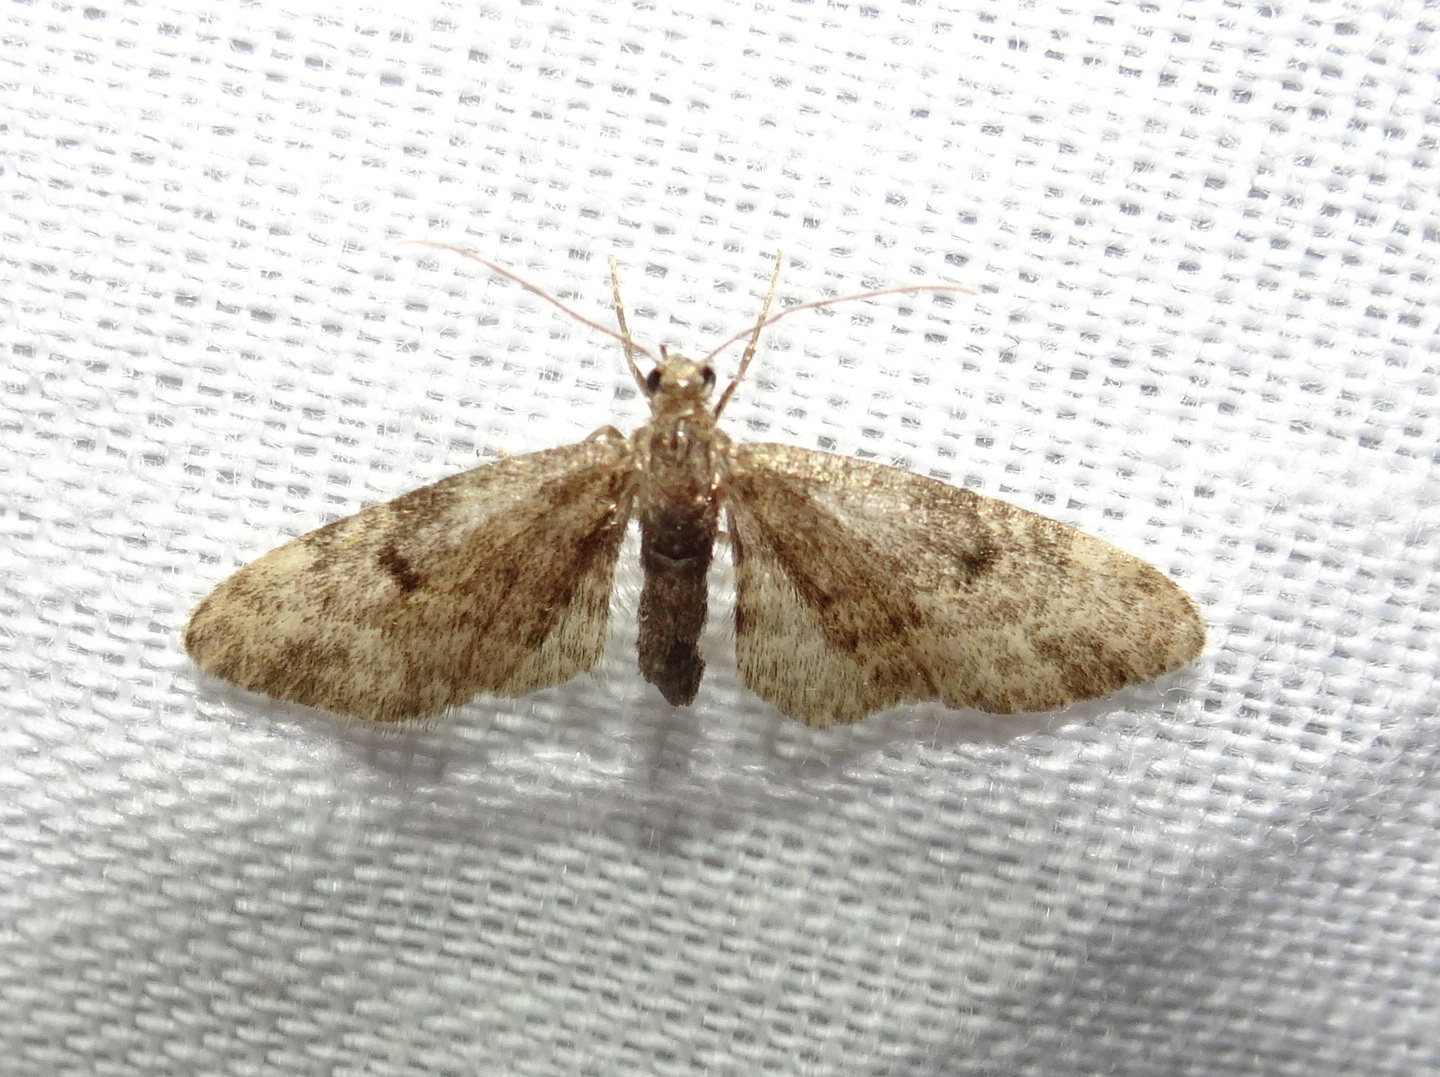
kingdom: Animalia
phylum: Arthropoda
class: Insecta
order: Lepidoptera
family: Geometridae
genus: Eupithecia
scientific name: Eupithecia tantillaria
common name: Dwarf pug
